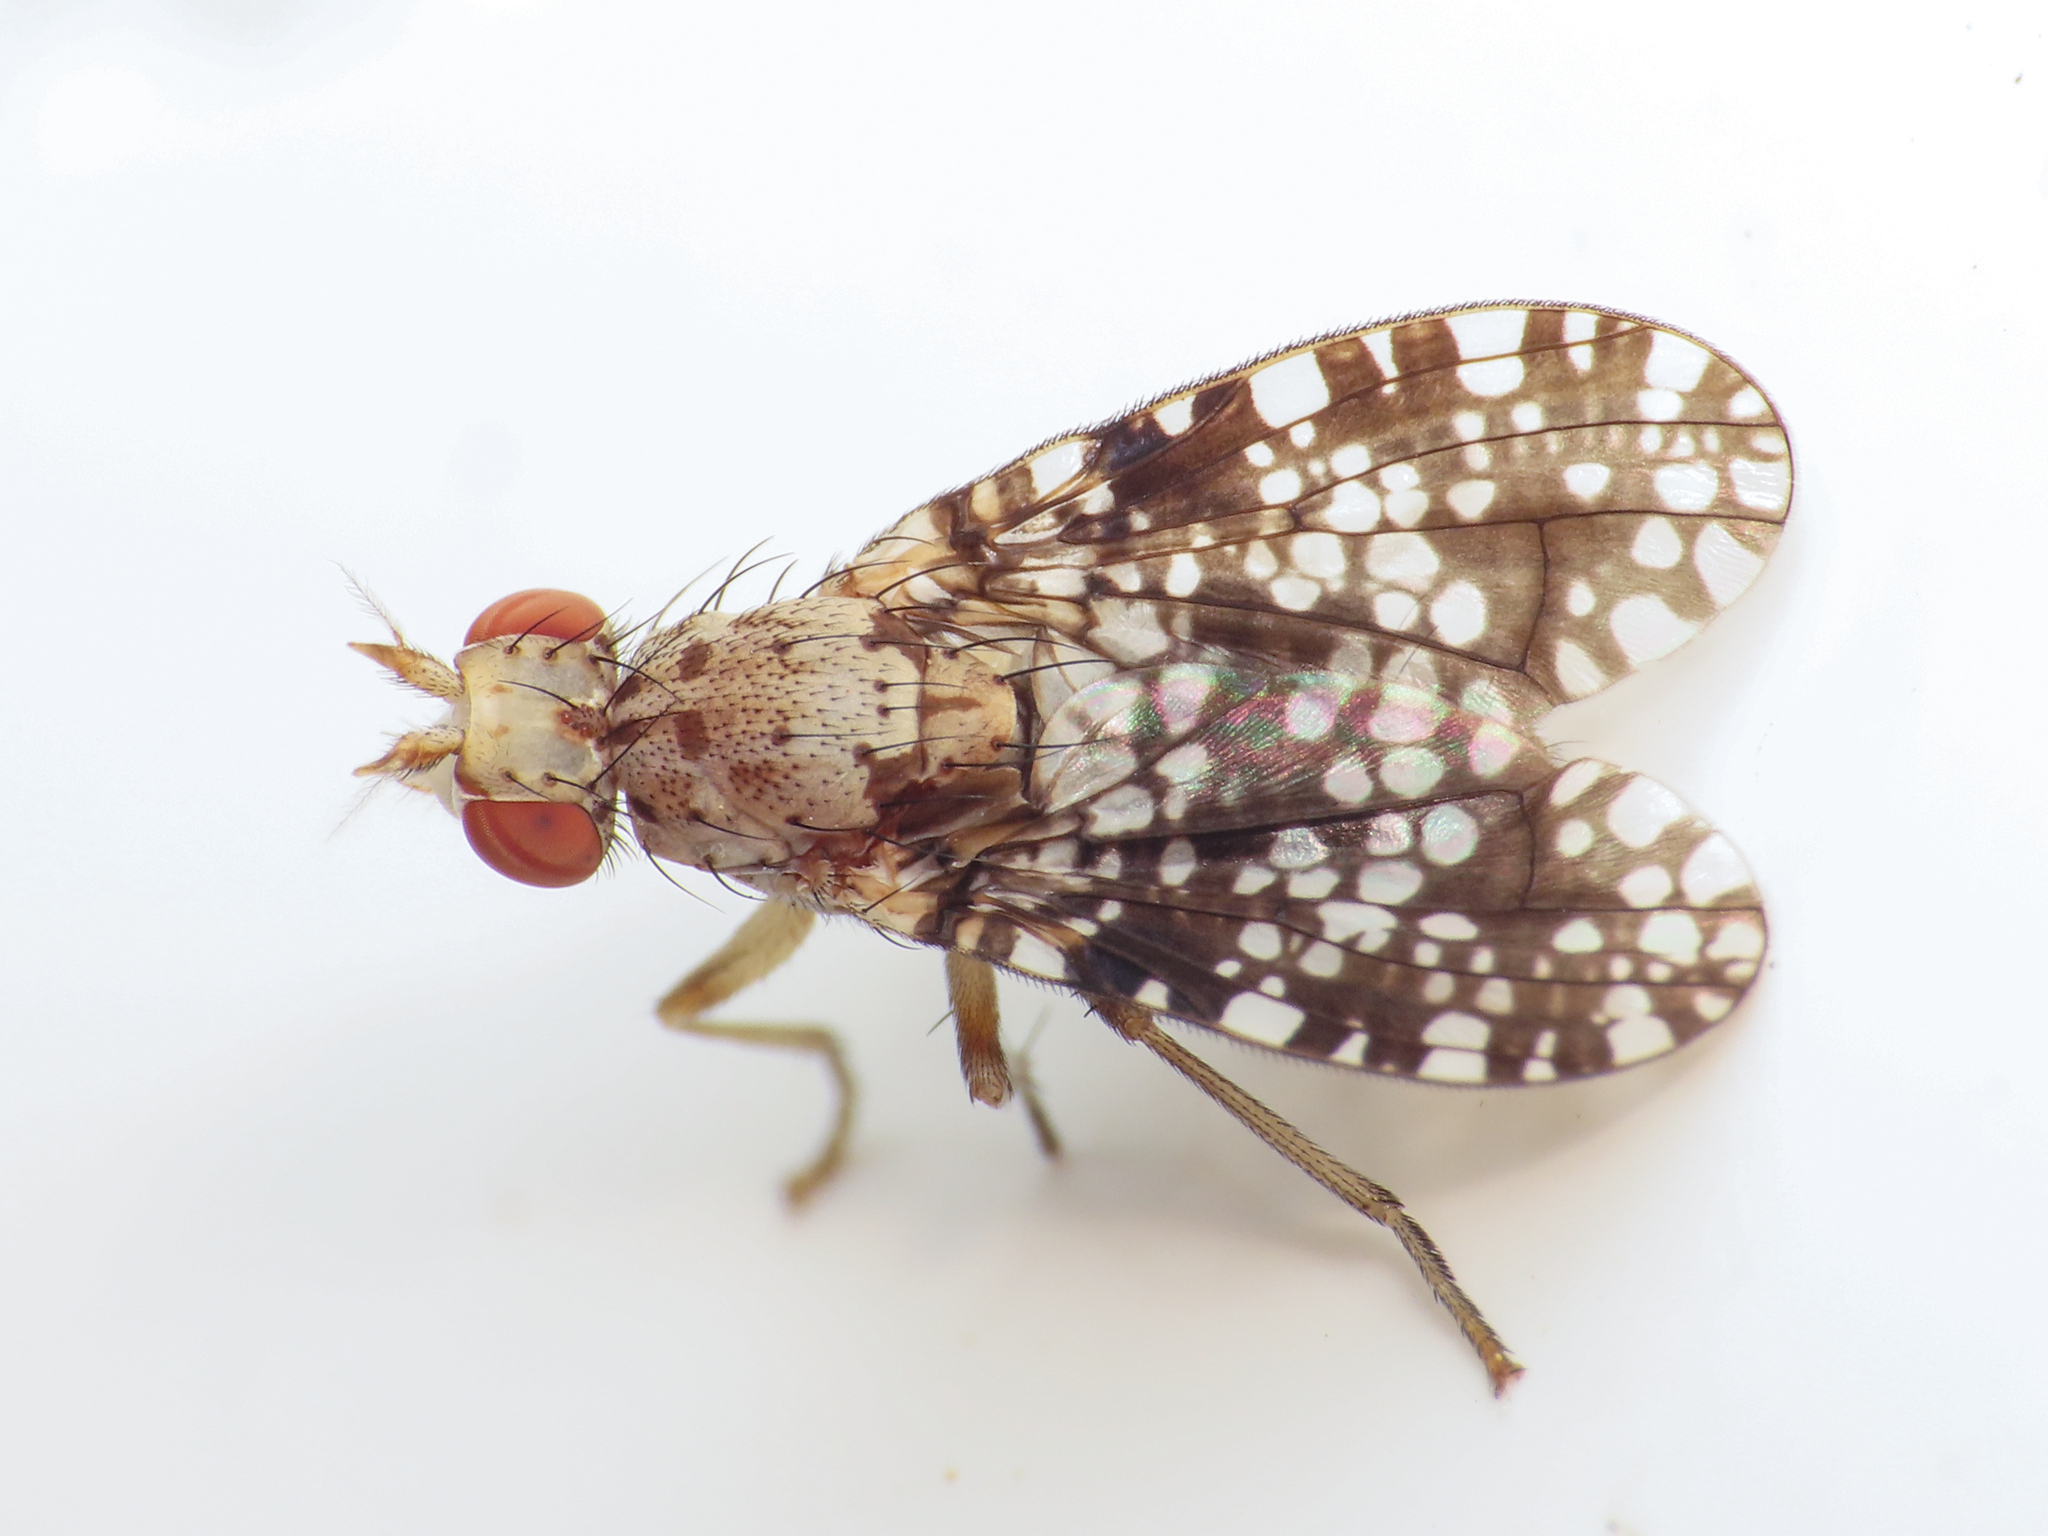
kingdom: Animalia
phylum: Arthropoda
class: Insecta
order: Diptera
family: Sciomyzidae
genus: Trypetoptera
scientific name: Trypetoptera punctulata
